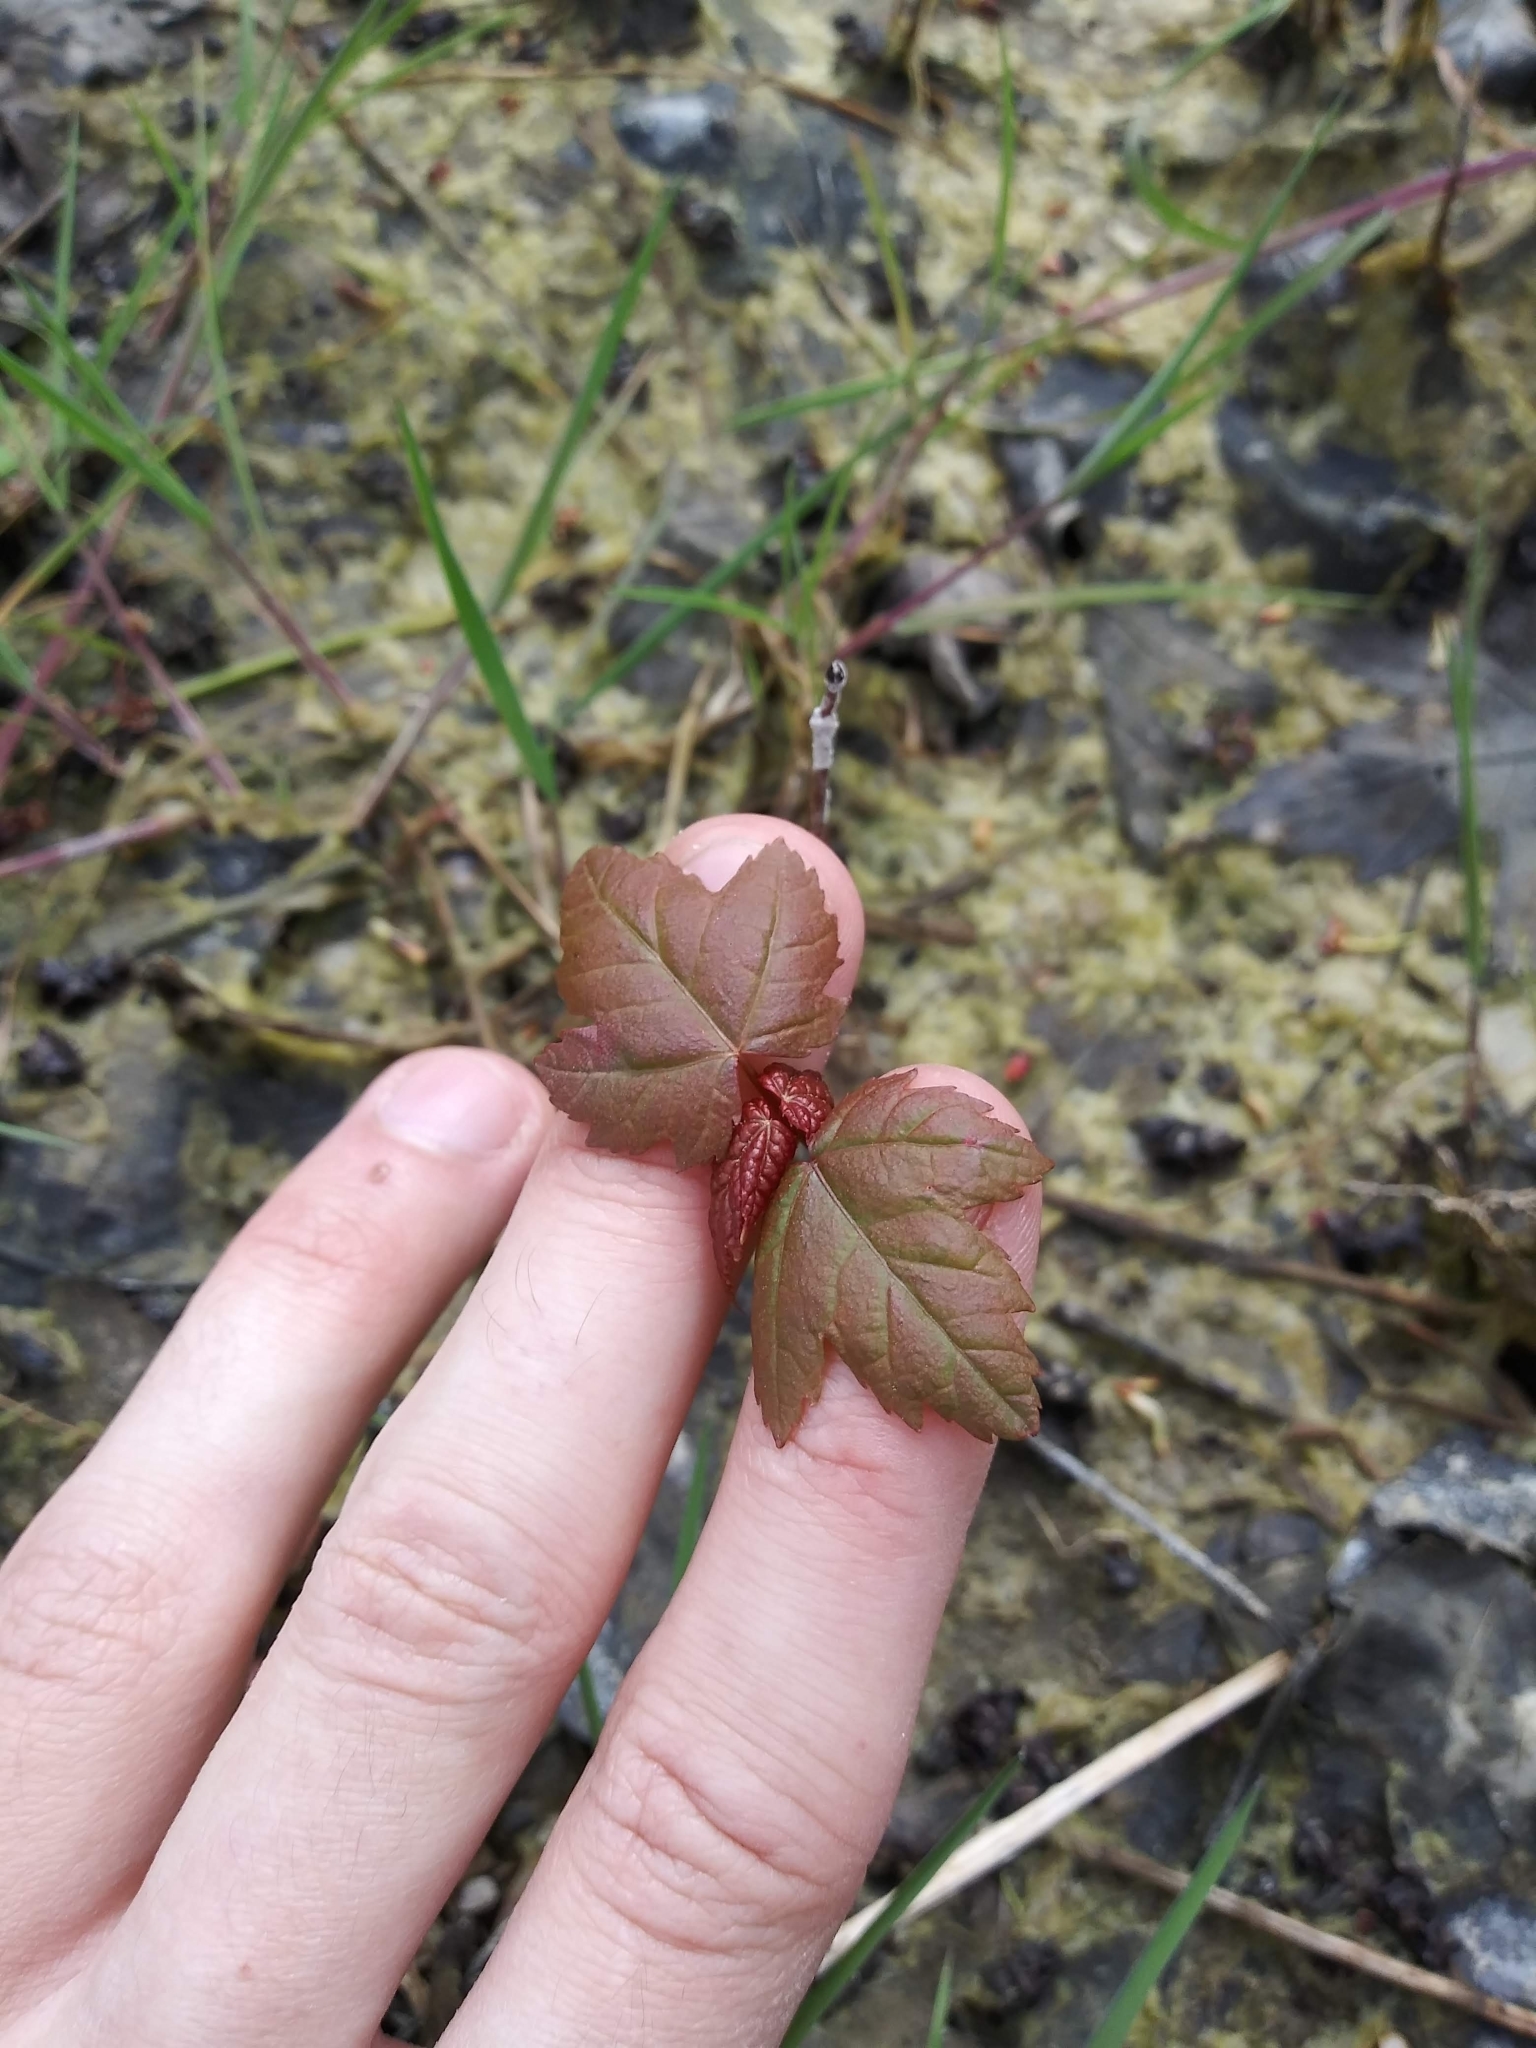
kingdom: Plantae
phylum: Tracheophyta
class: Magnoliopsida
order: Sapindales
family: Sapindaceae
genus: Acer
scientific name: Acer rubrum
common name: Red maple
